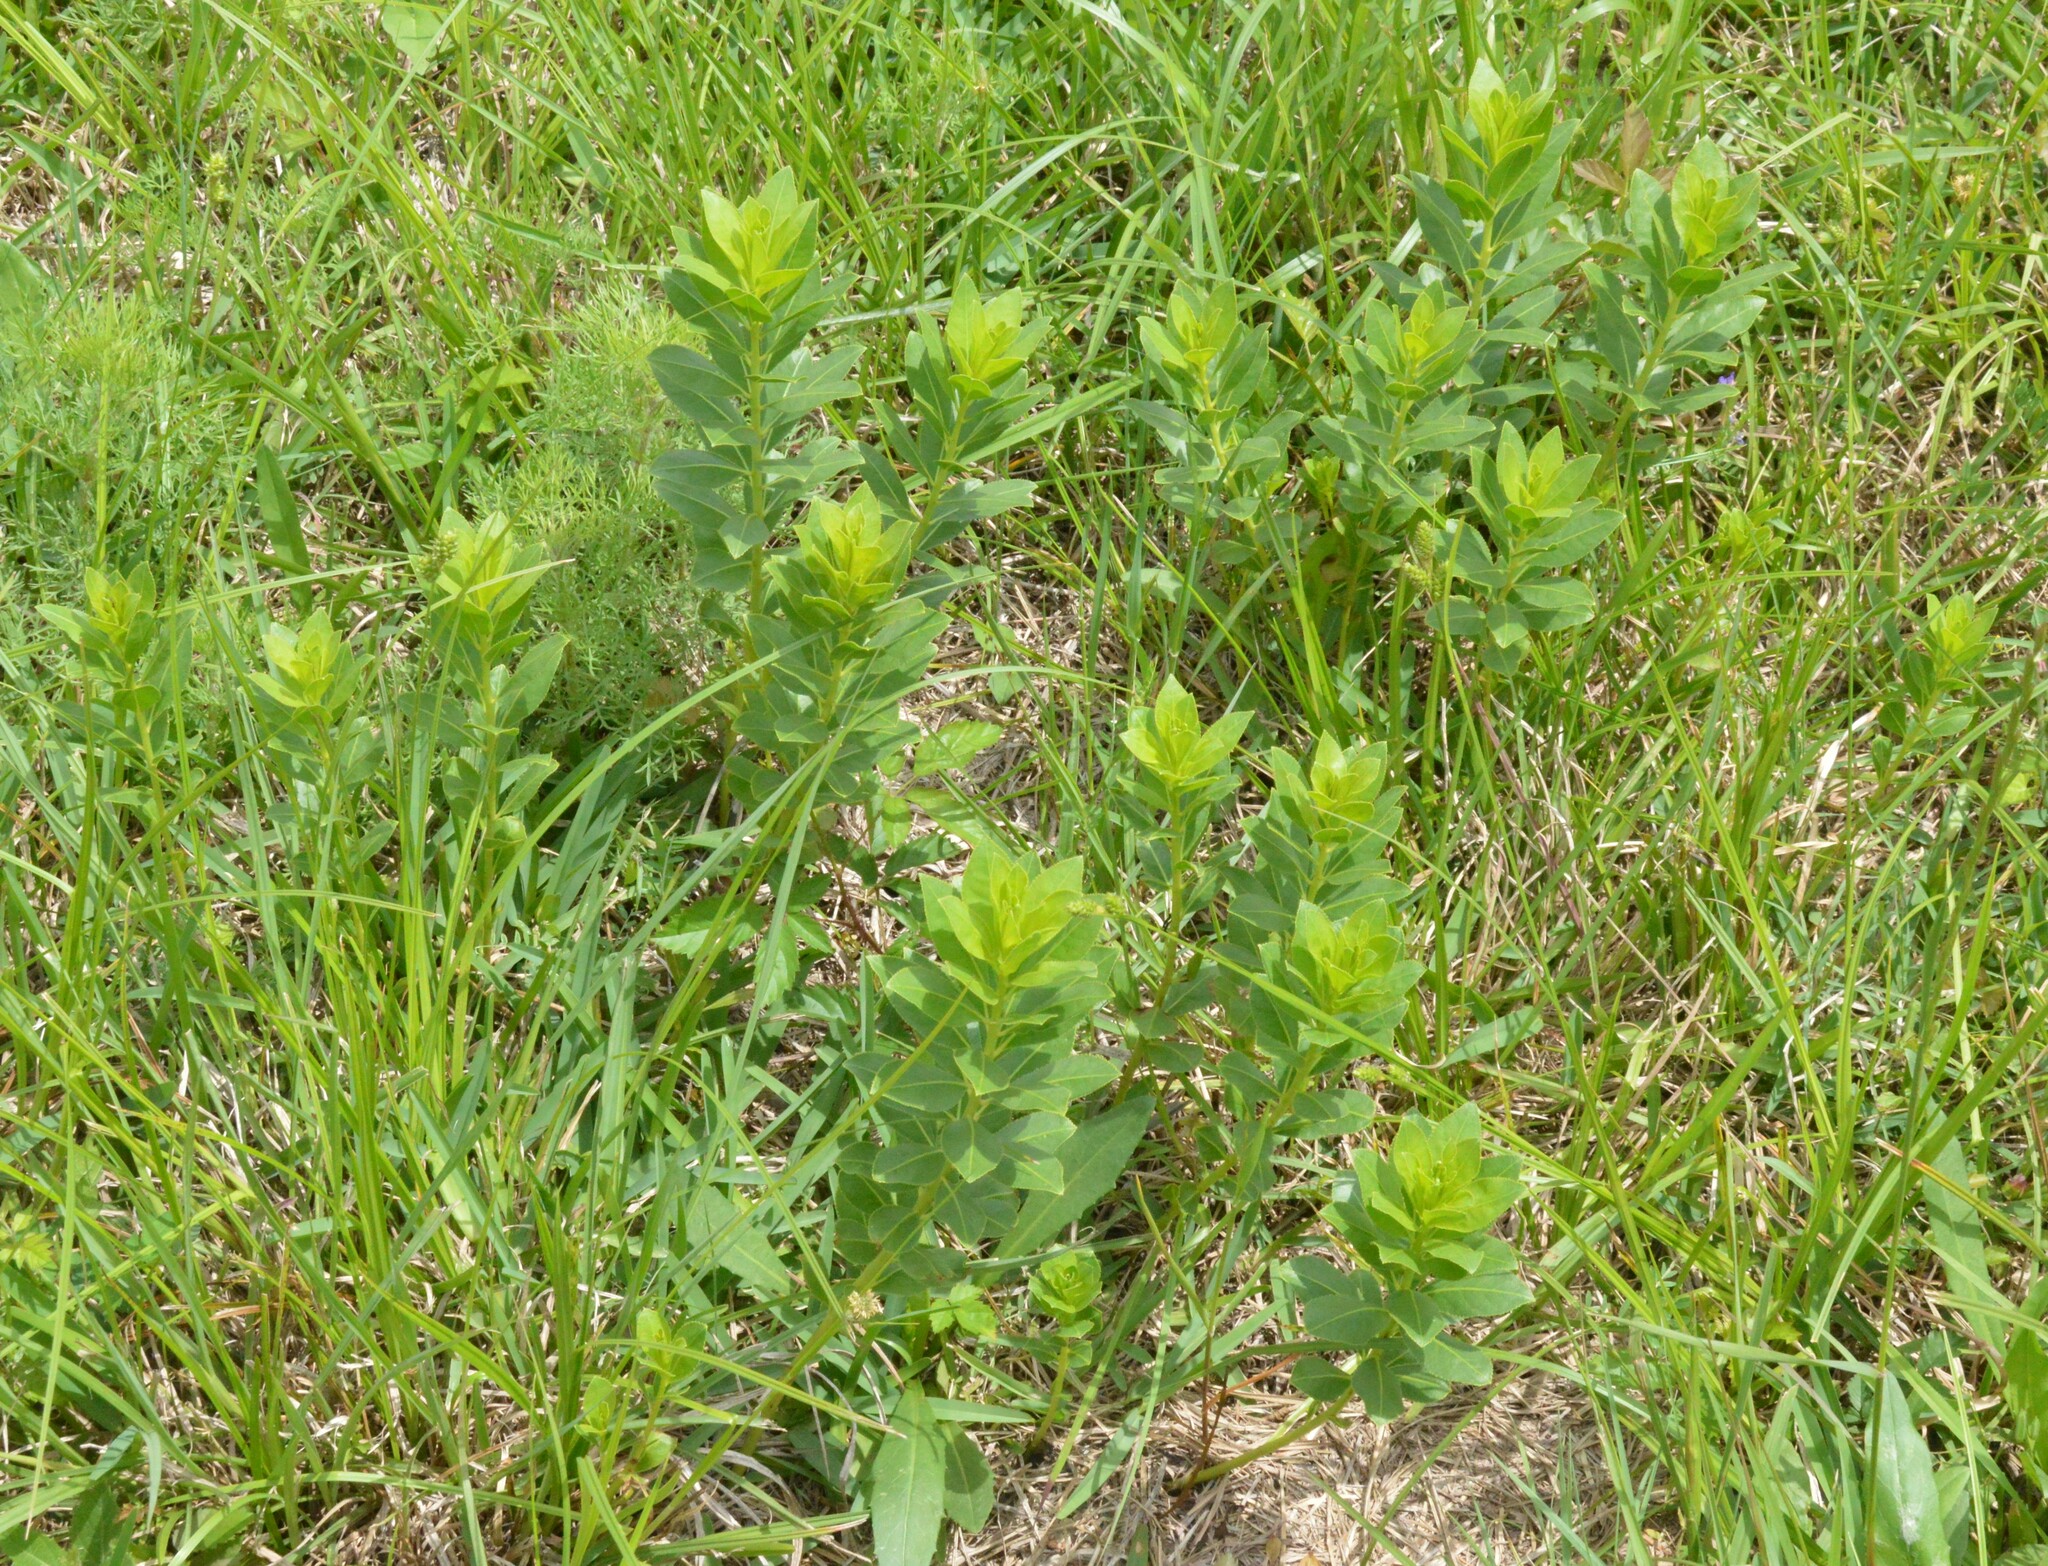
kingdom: Plantae
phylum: Tracheophyta
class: Magnoliopsida
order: Malpighiales
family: Euphorbiaceae
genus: Stillingia
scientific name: Stillingia sylvatica
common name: Queen's-delight
